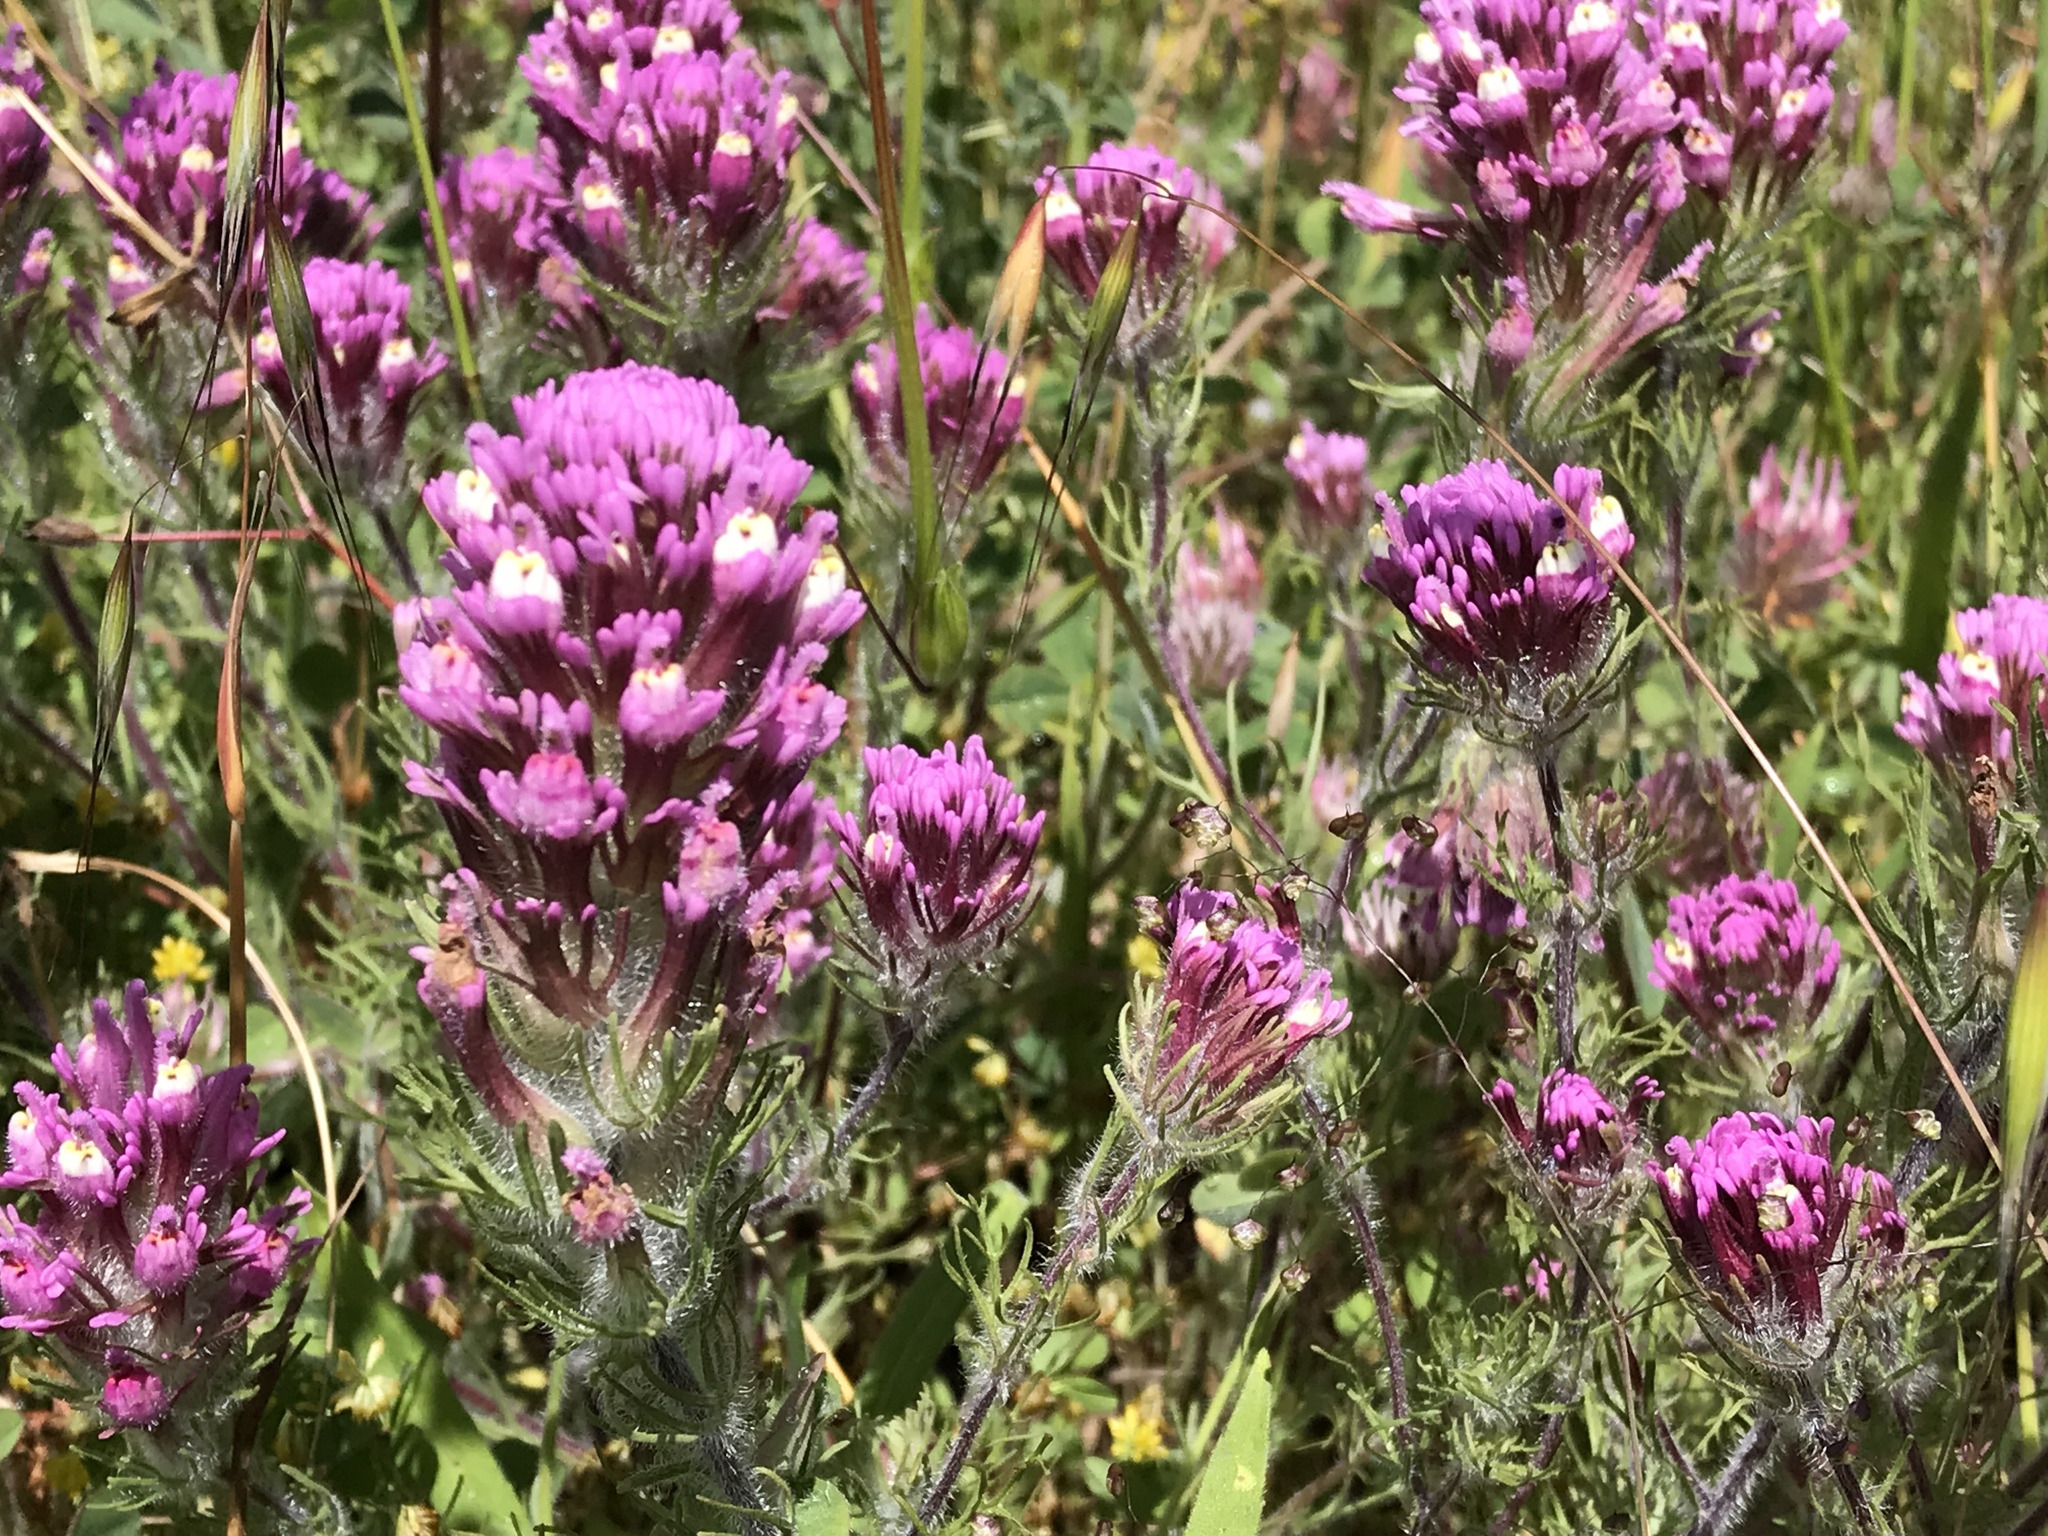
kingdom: Plantae
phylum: Tracheophyta
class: Magnoliopsida
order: Lamiales
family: Orobanchaceae
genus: Castilleja
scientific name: Castilleja exserta
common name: Purple owl-clover
